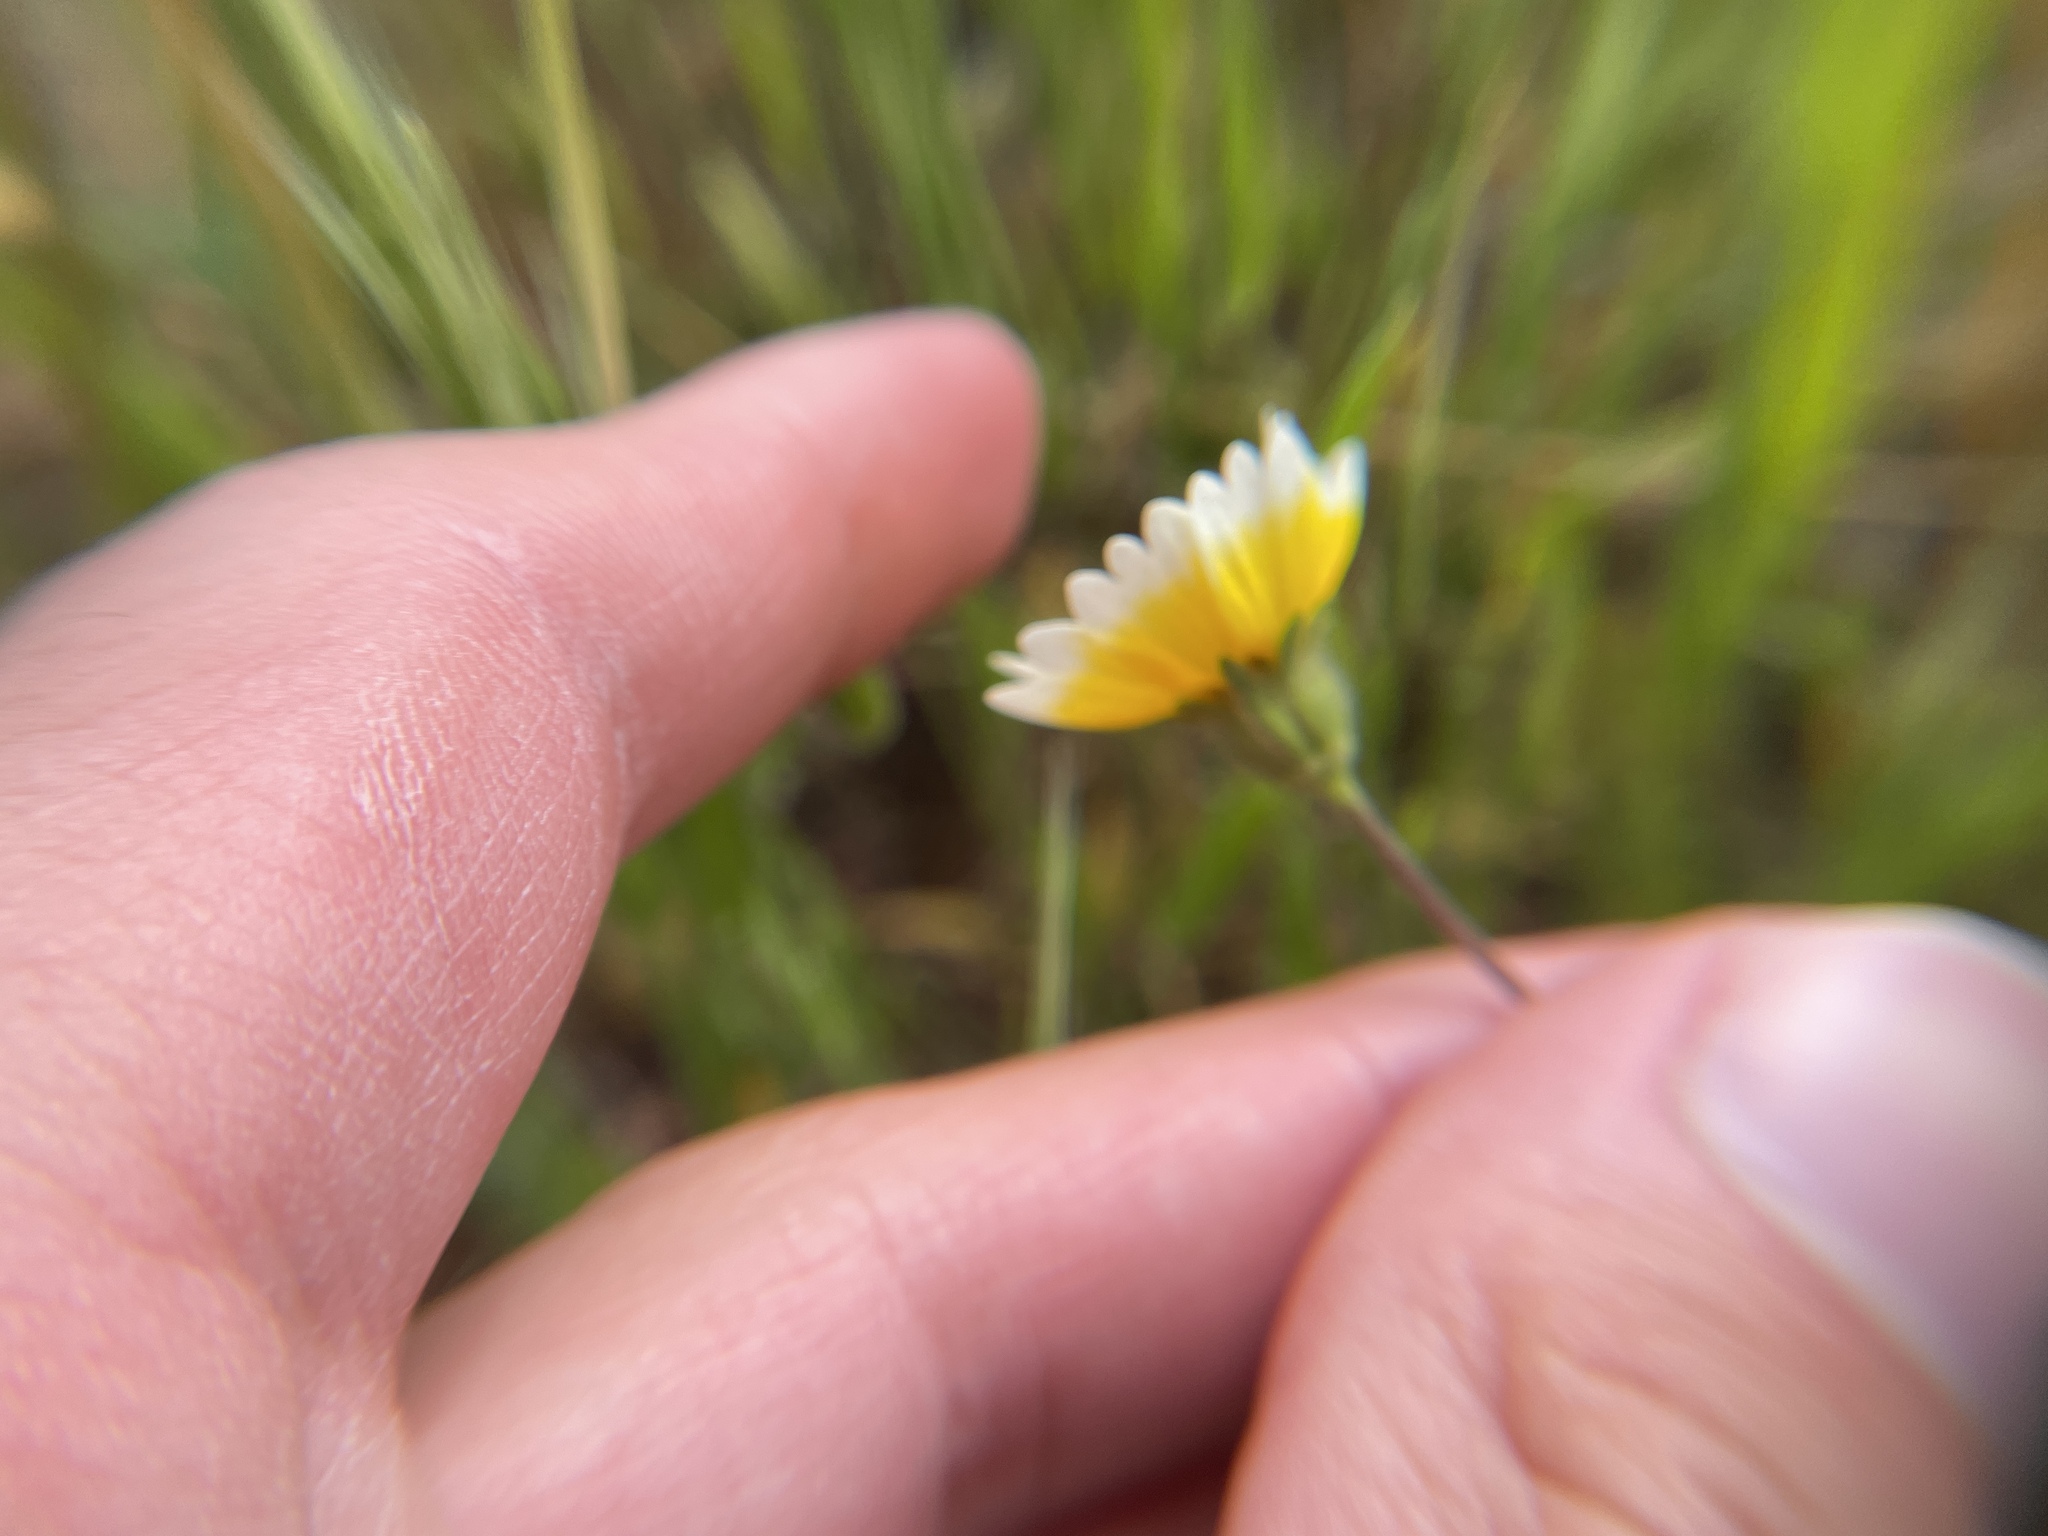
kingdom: Plantae
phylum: Tracheophyta
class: Magnoliopsida
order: Asterales
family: Asteraceae
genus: Layia
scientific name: Layia platyglossa
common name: Tidy-tips
